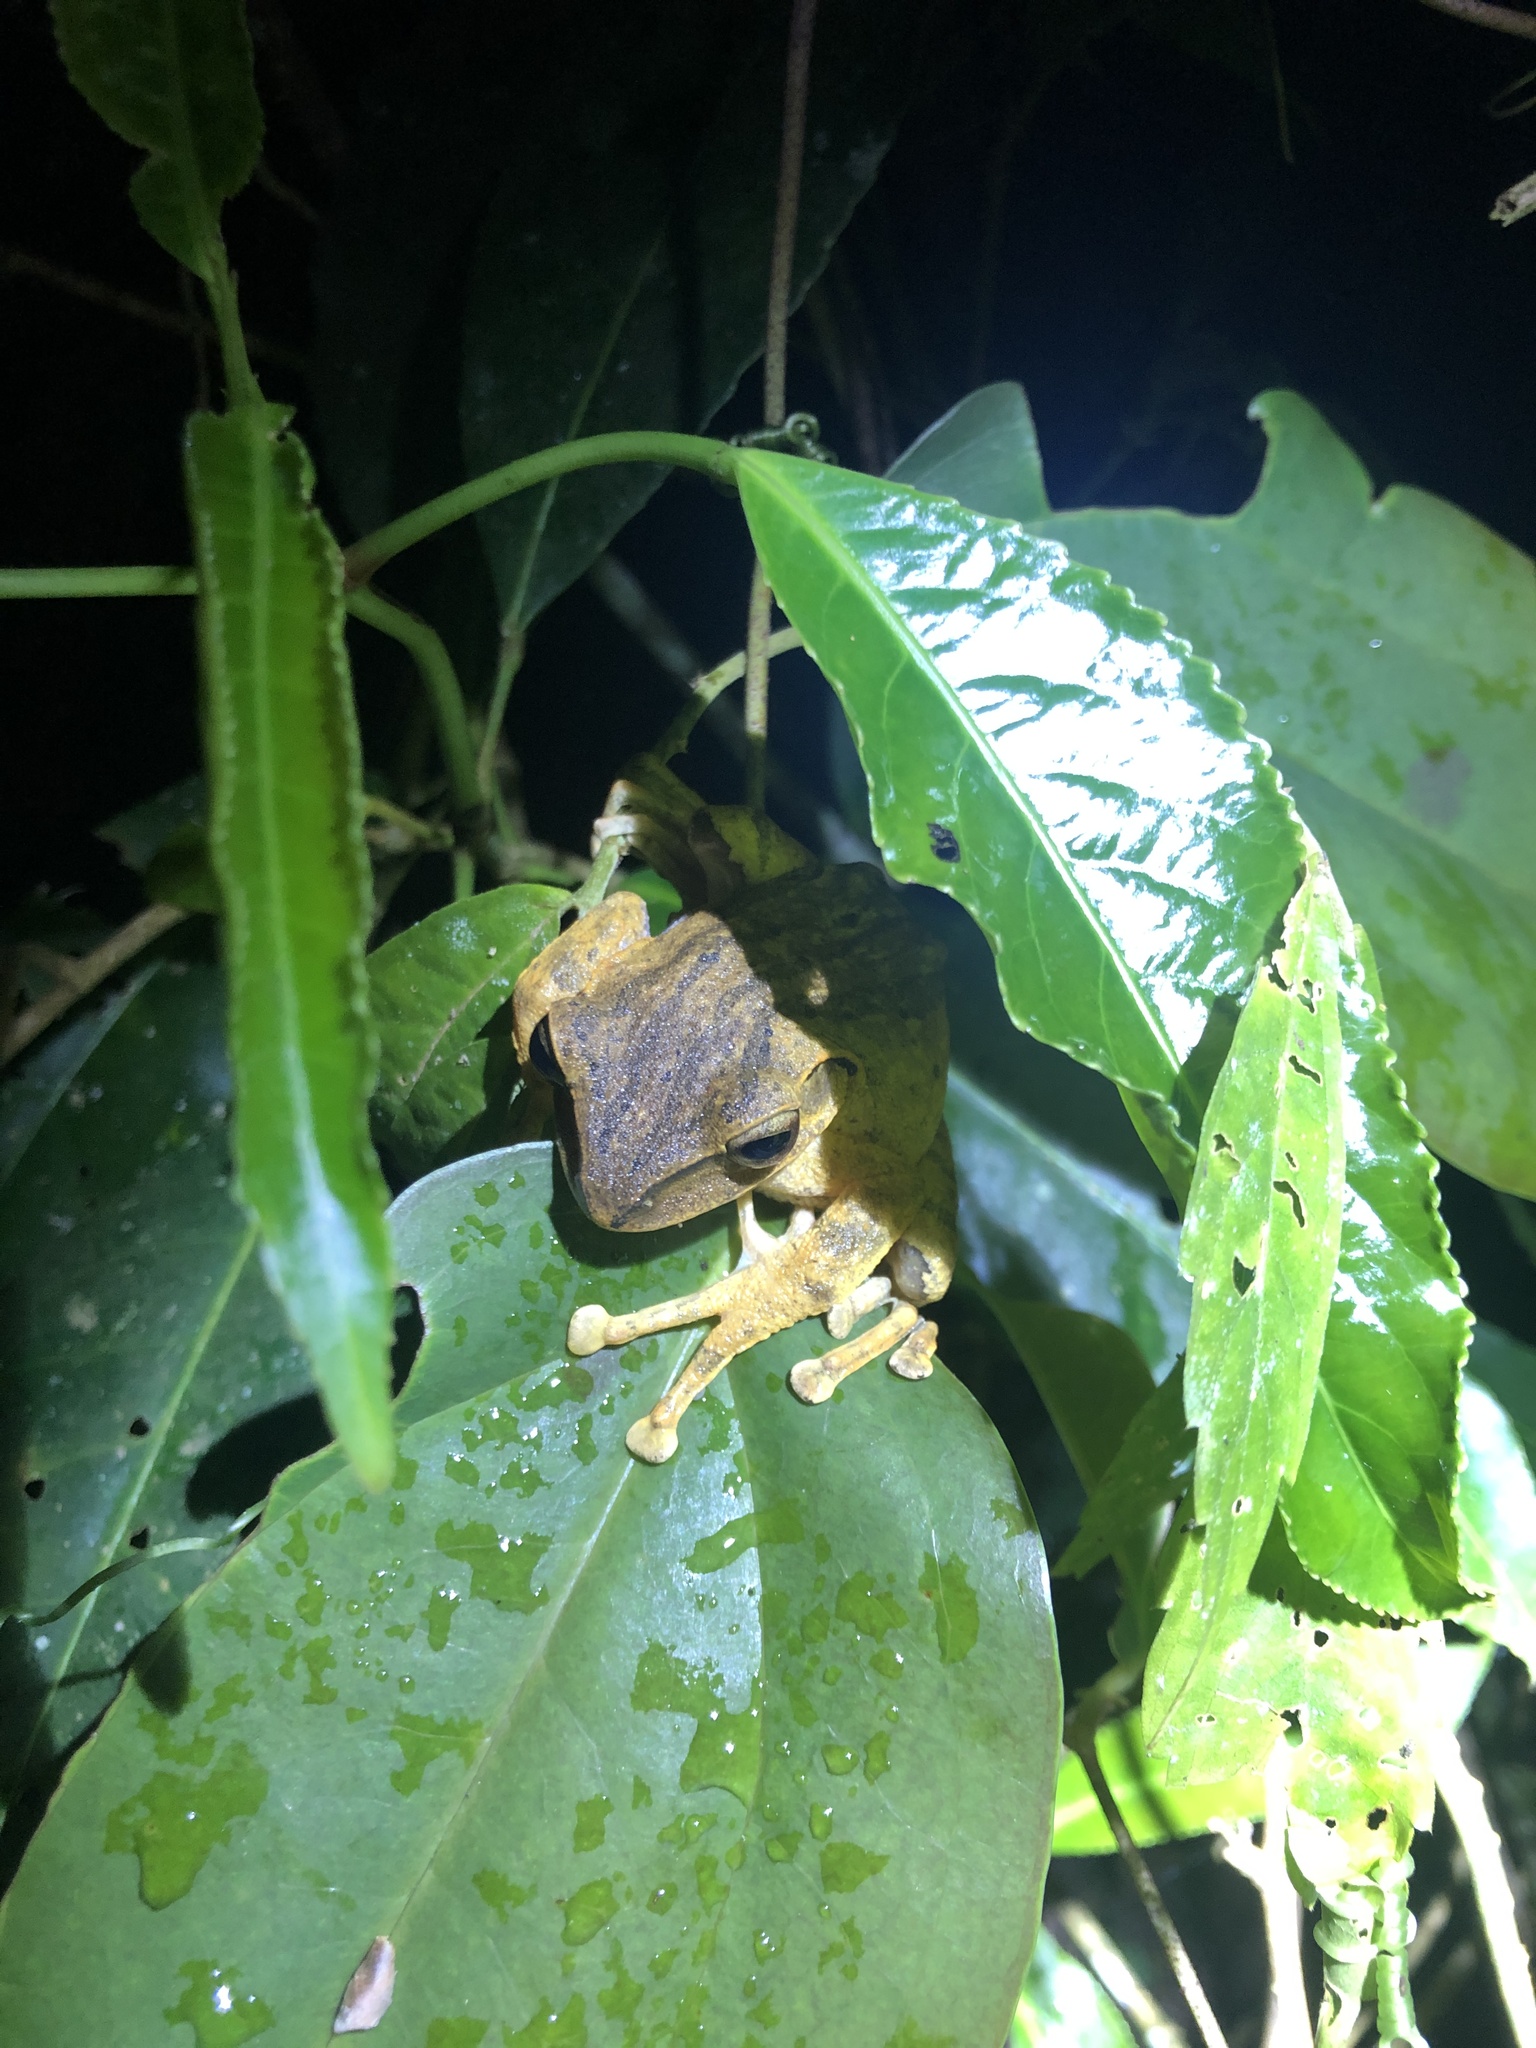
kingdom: Animalia
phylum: Chordata
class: Amphibia
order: Anura
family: Rhacophoridae
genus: Polypedates
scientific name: Polypedates braueri
